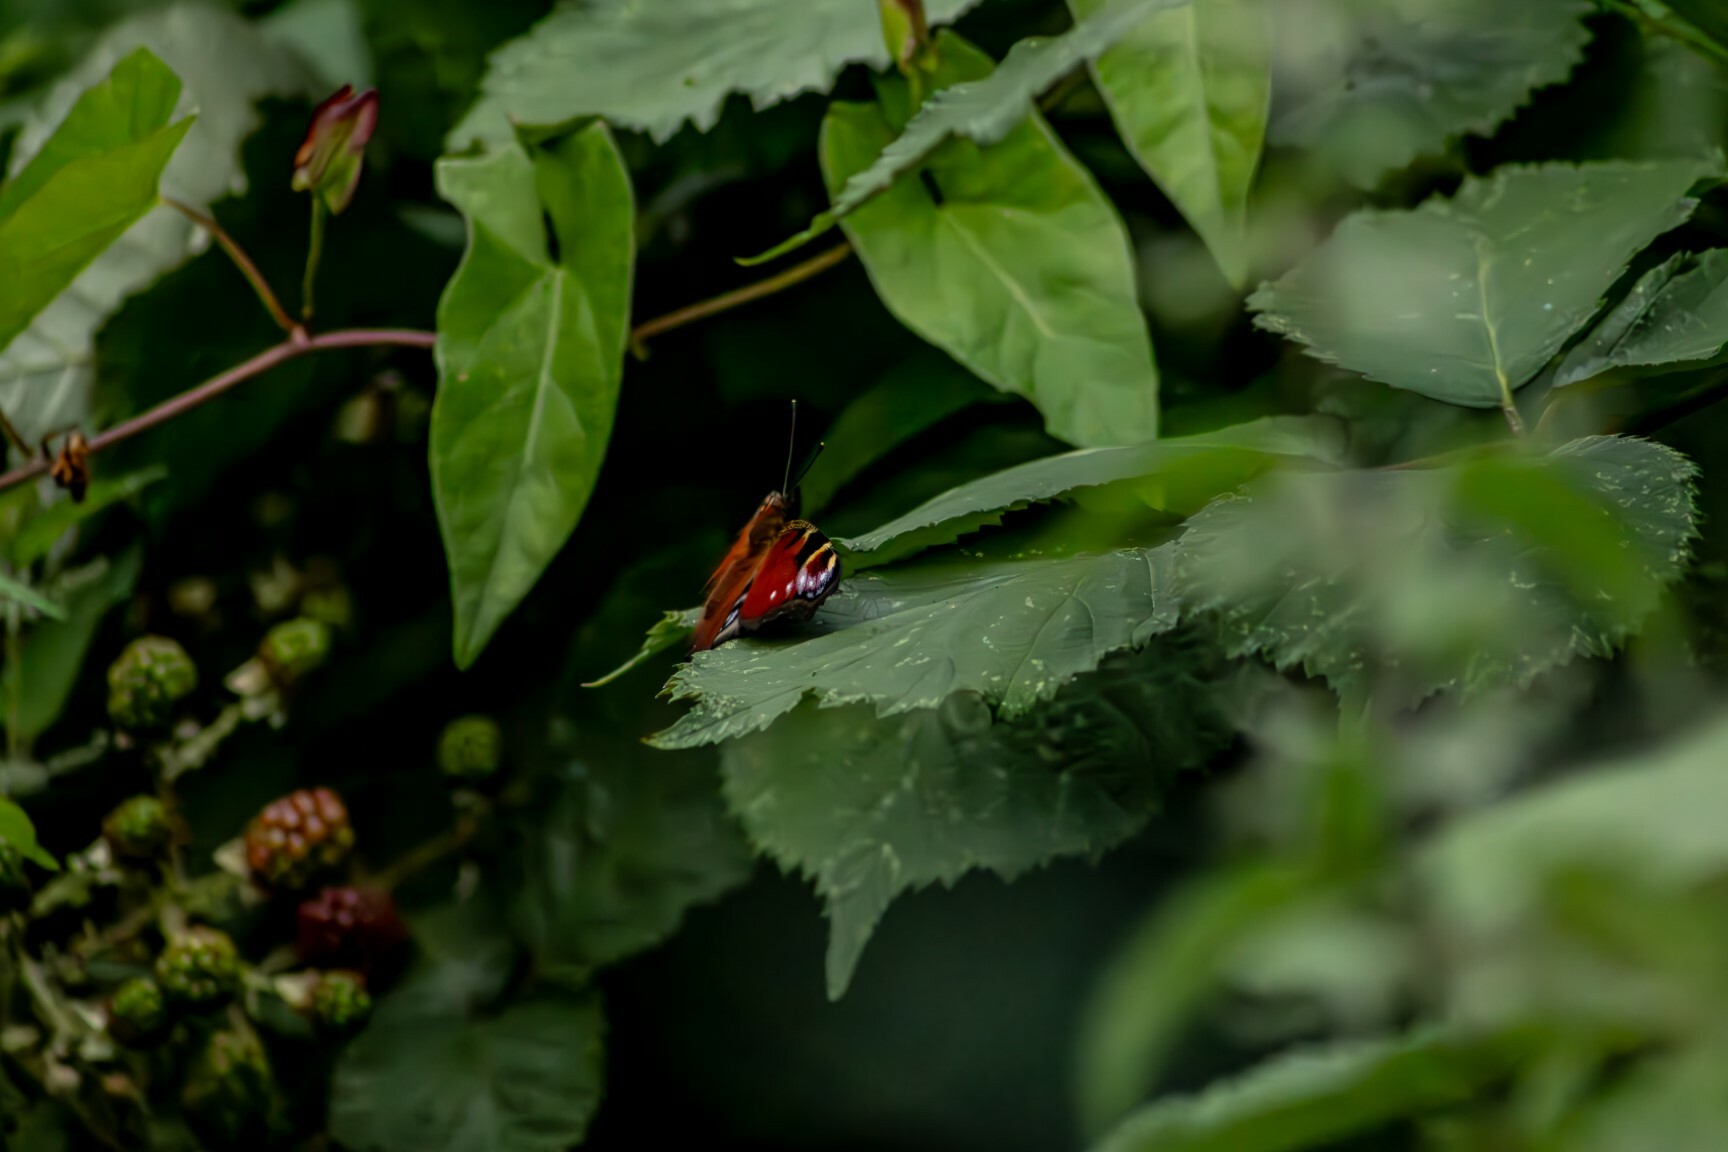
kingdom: Animalia
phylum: Arthropoda
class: Insecta
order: Lepidoptera
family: Nymphalidae
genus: Aglais
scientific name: Aglais io
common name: Peacock
